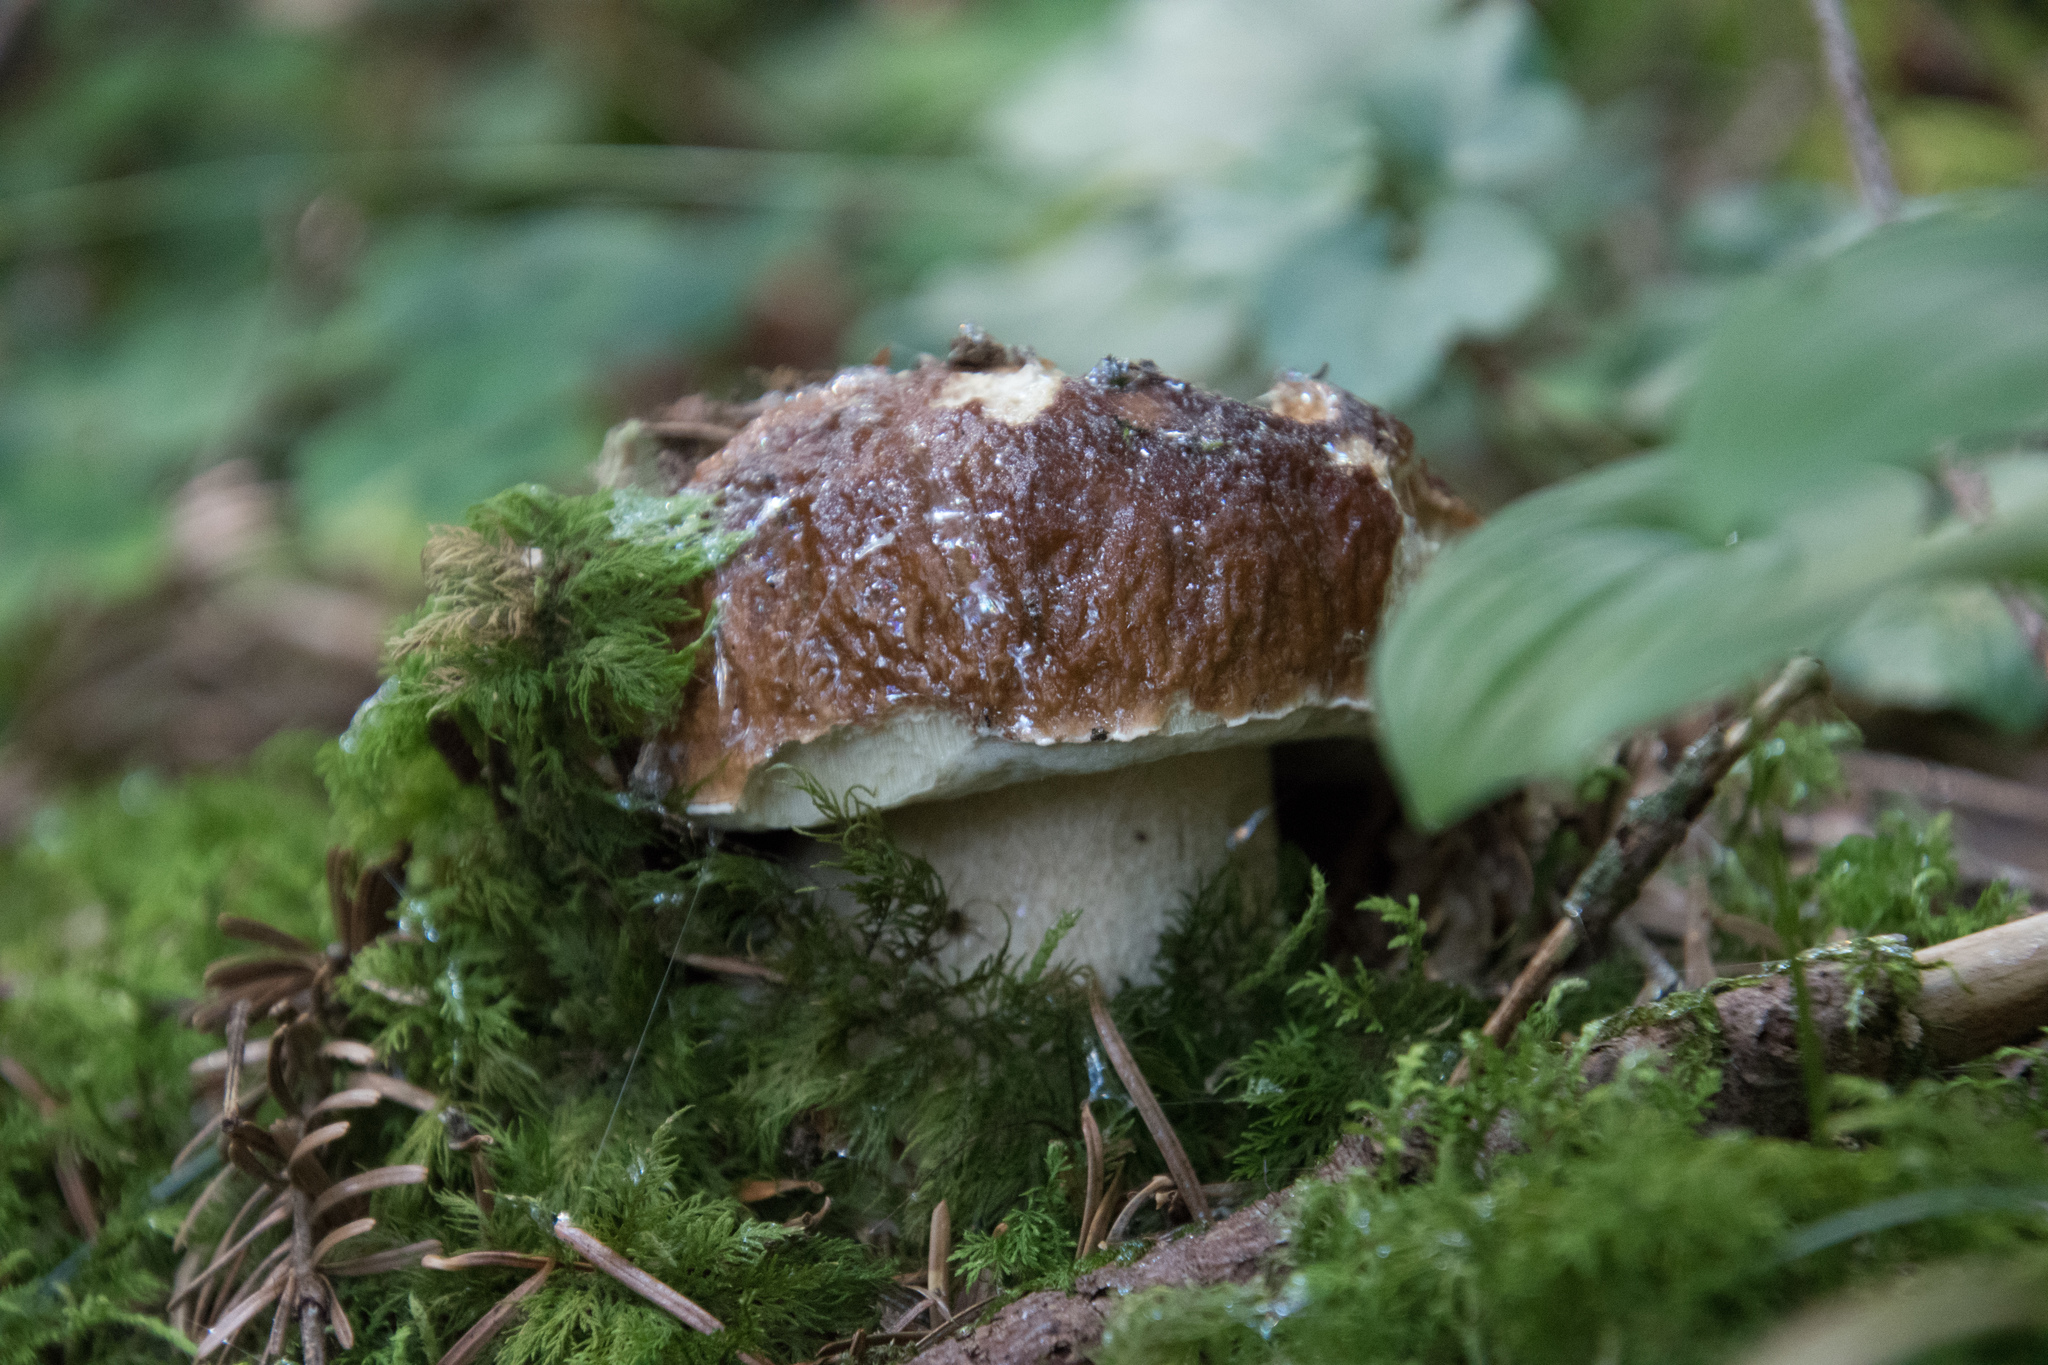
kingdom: Fungi
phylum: Basidiomycota
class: Agaricomycetes
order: Boletales
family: Boletaceae
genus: Boletus
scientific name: Boletus edulis
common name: Cep
